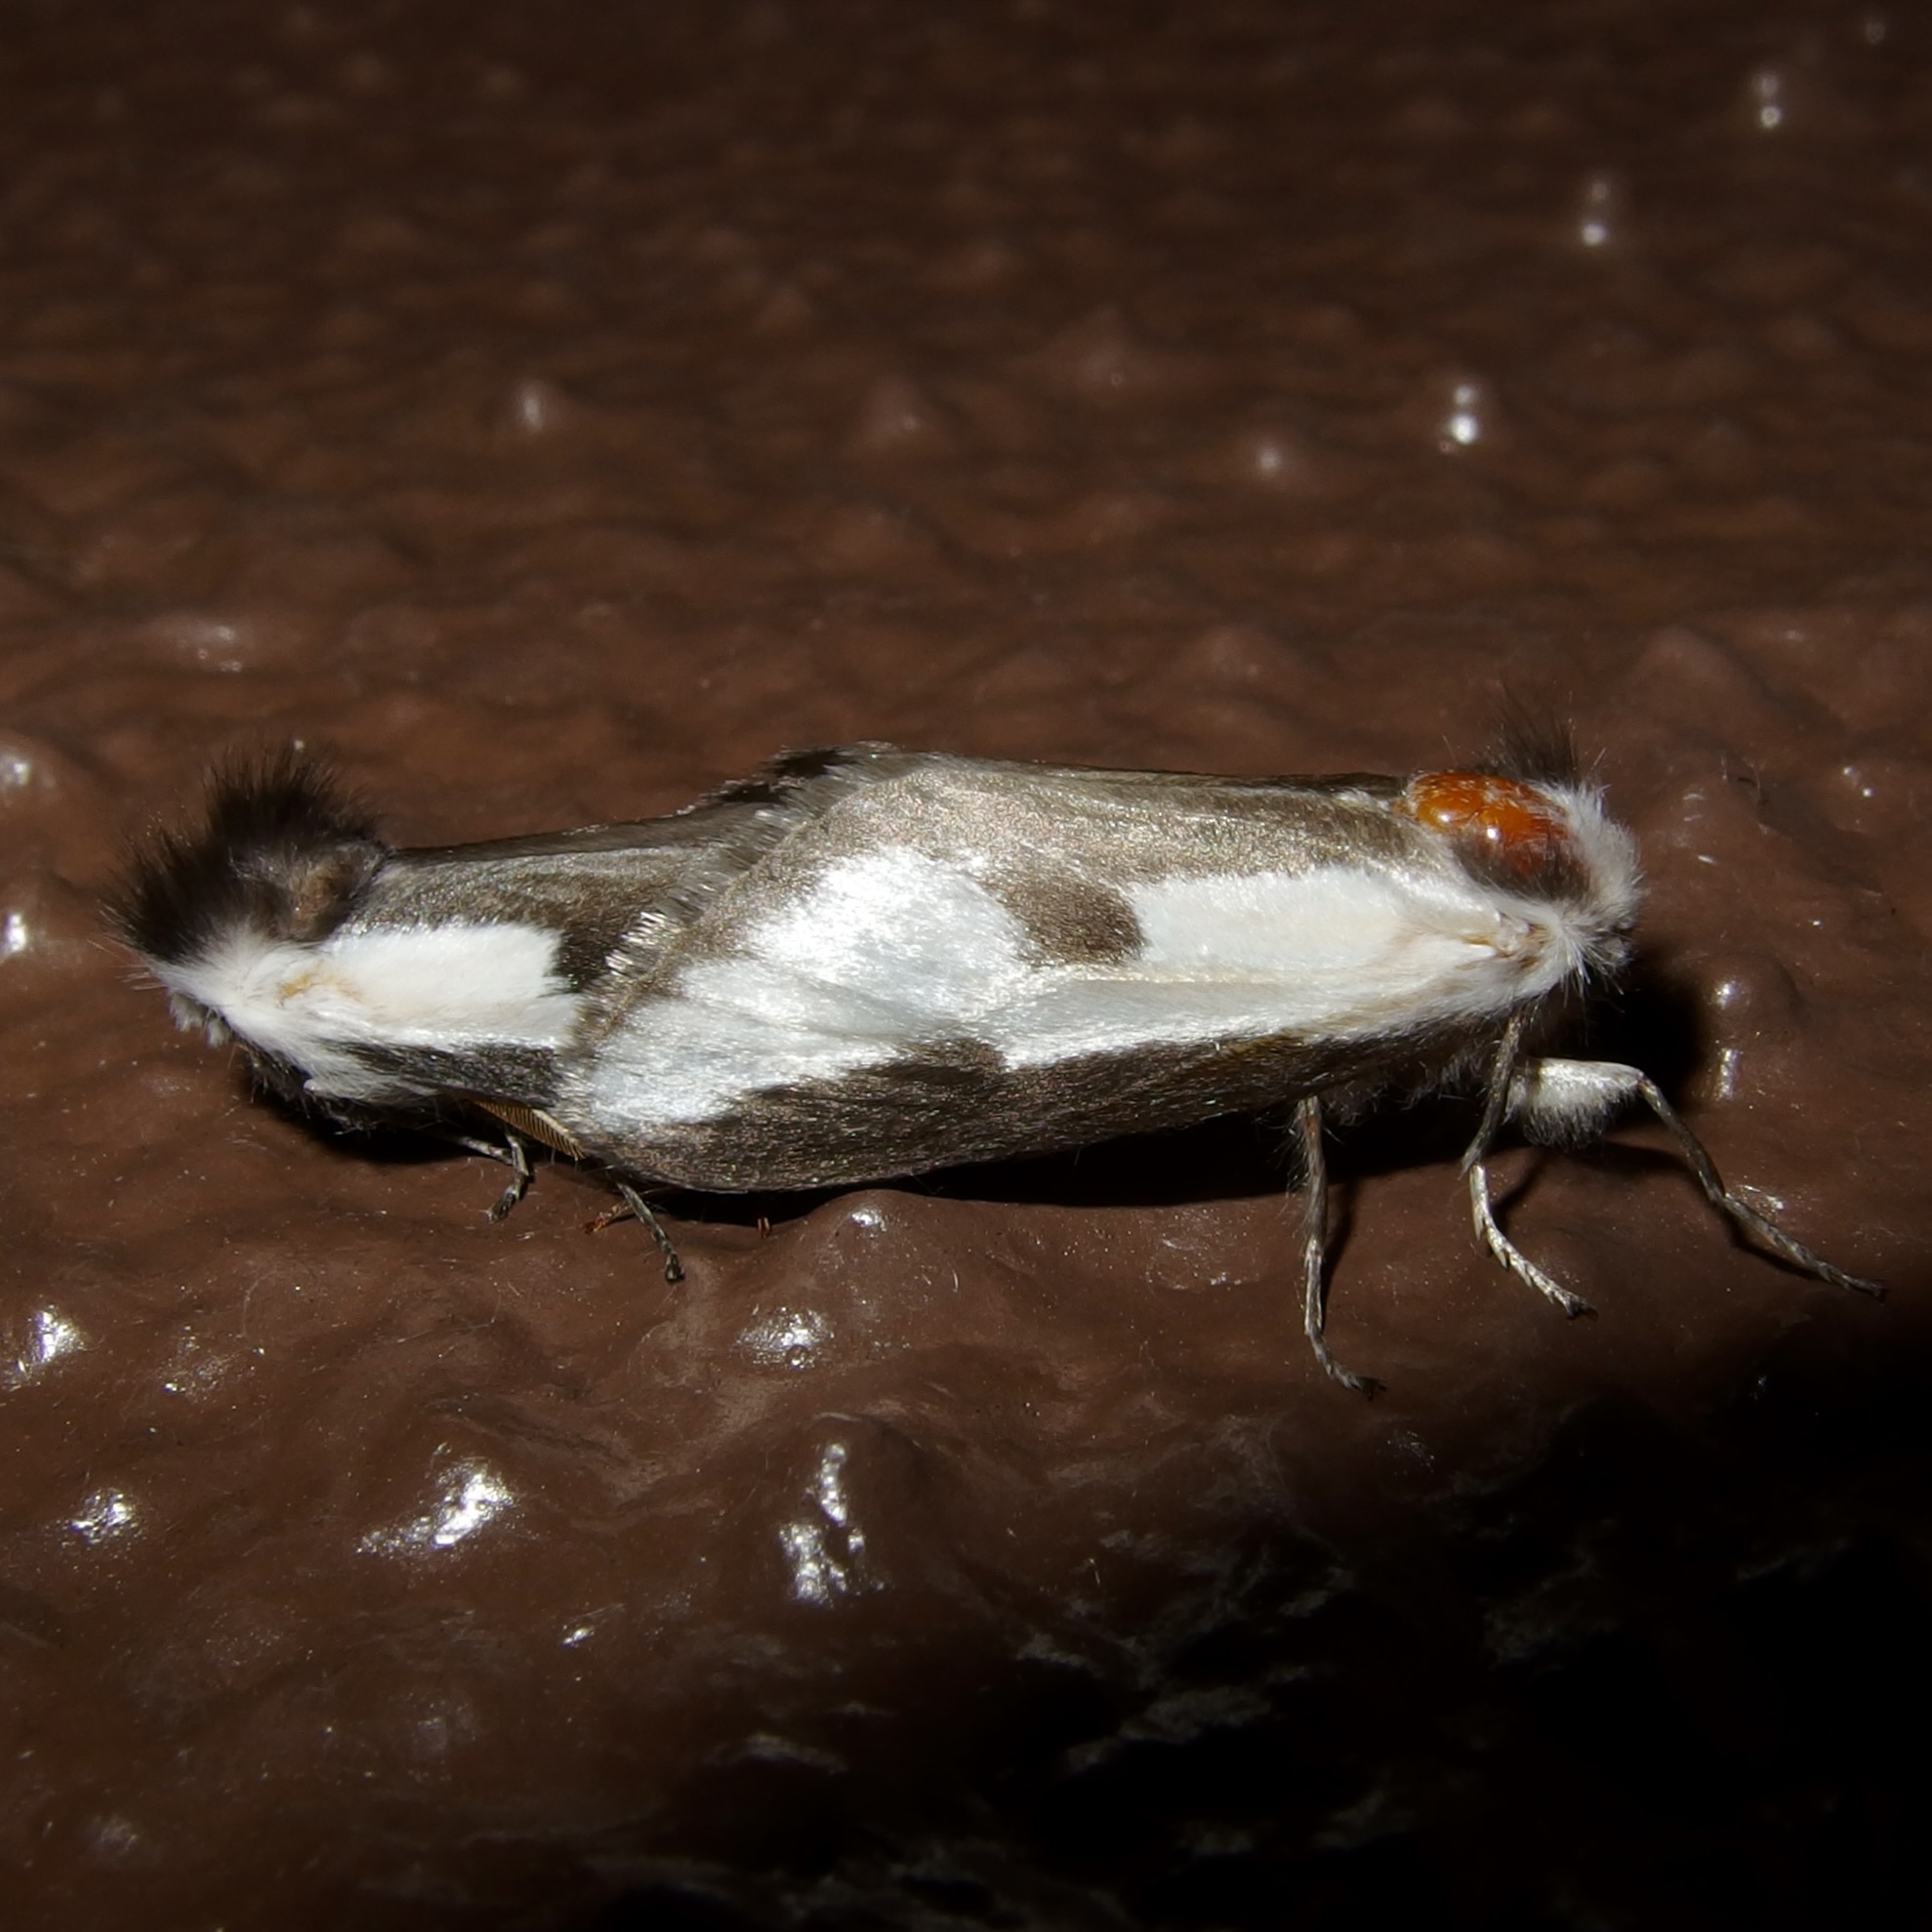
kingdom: Animalia
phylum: Arthropoda
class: Insecta
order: Lepidoptera
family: Megalopygidae
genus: Norape
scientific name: Norape tener
